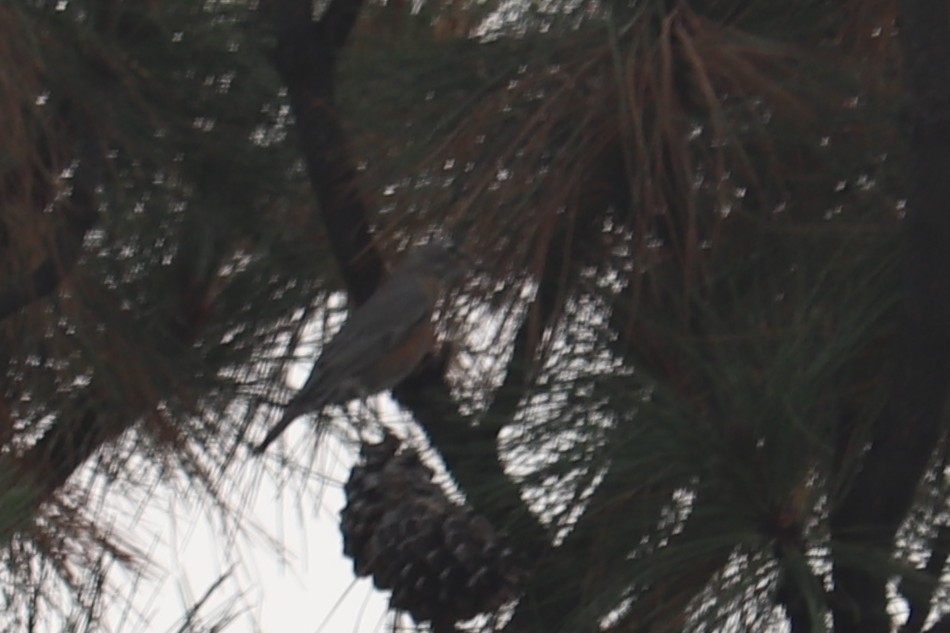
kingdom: Animalia
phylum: Chordata
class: Aves
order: Passeriformes
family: Turdidae
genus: Turdus
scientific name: Turdus migratorius
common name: American robin
